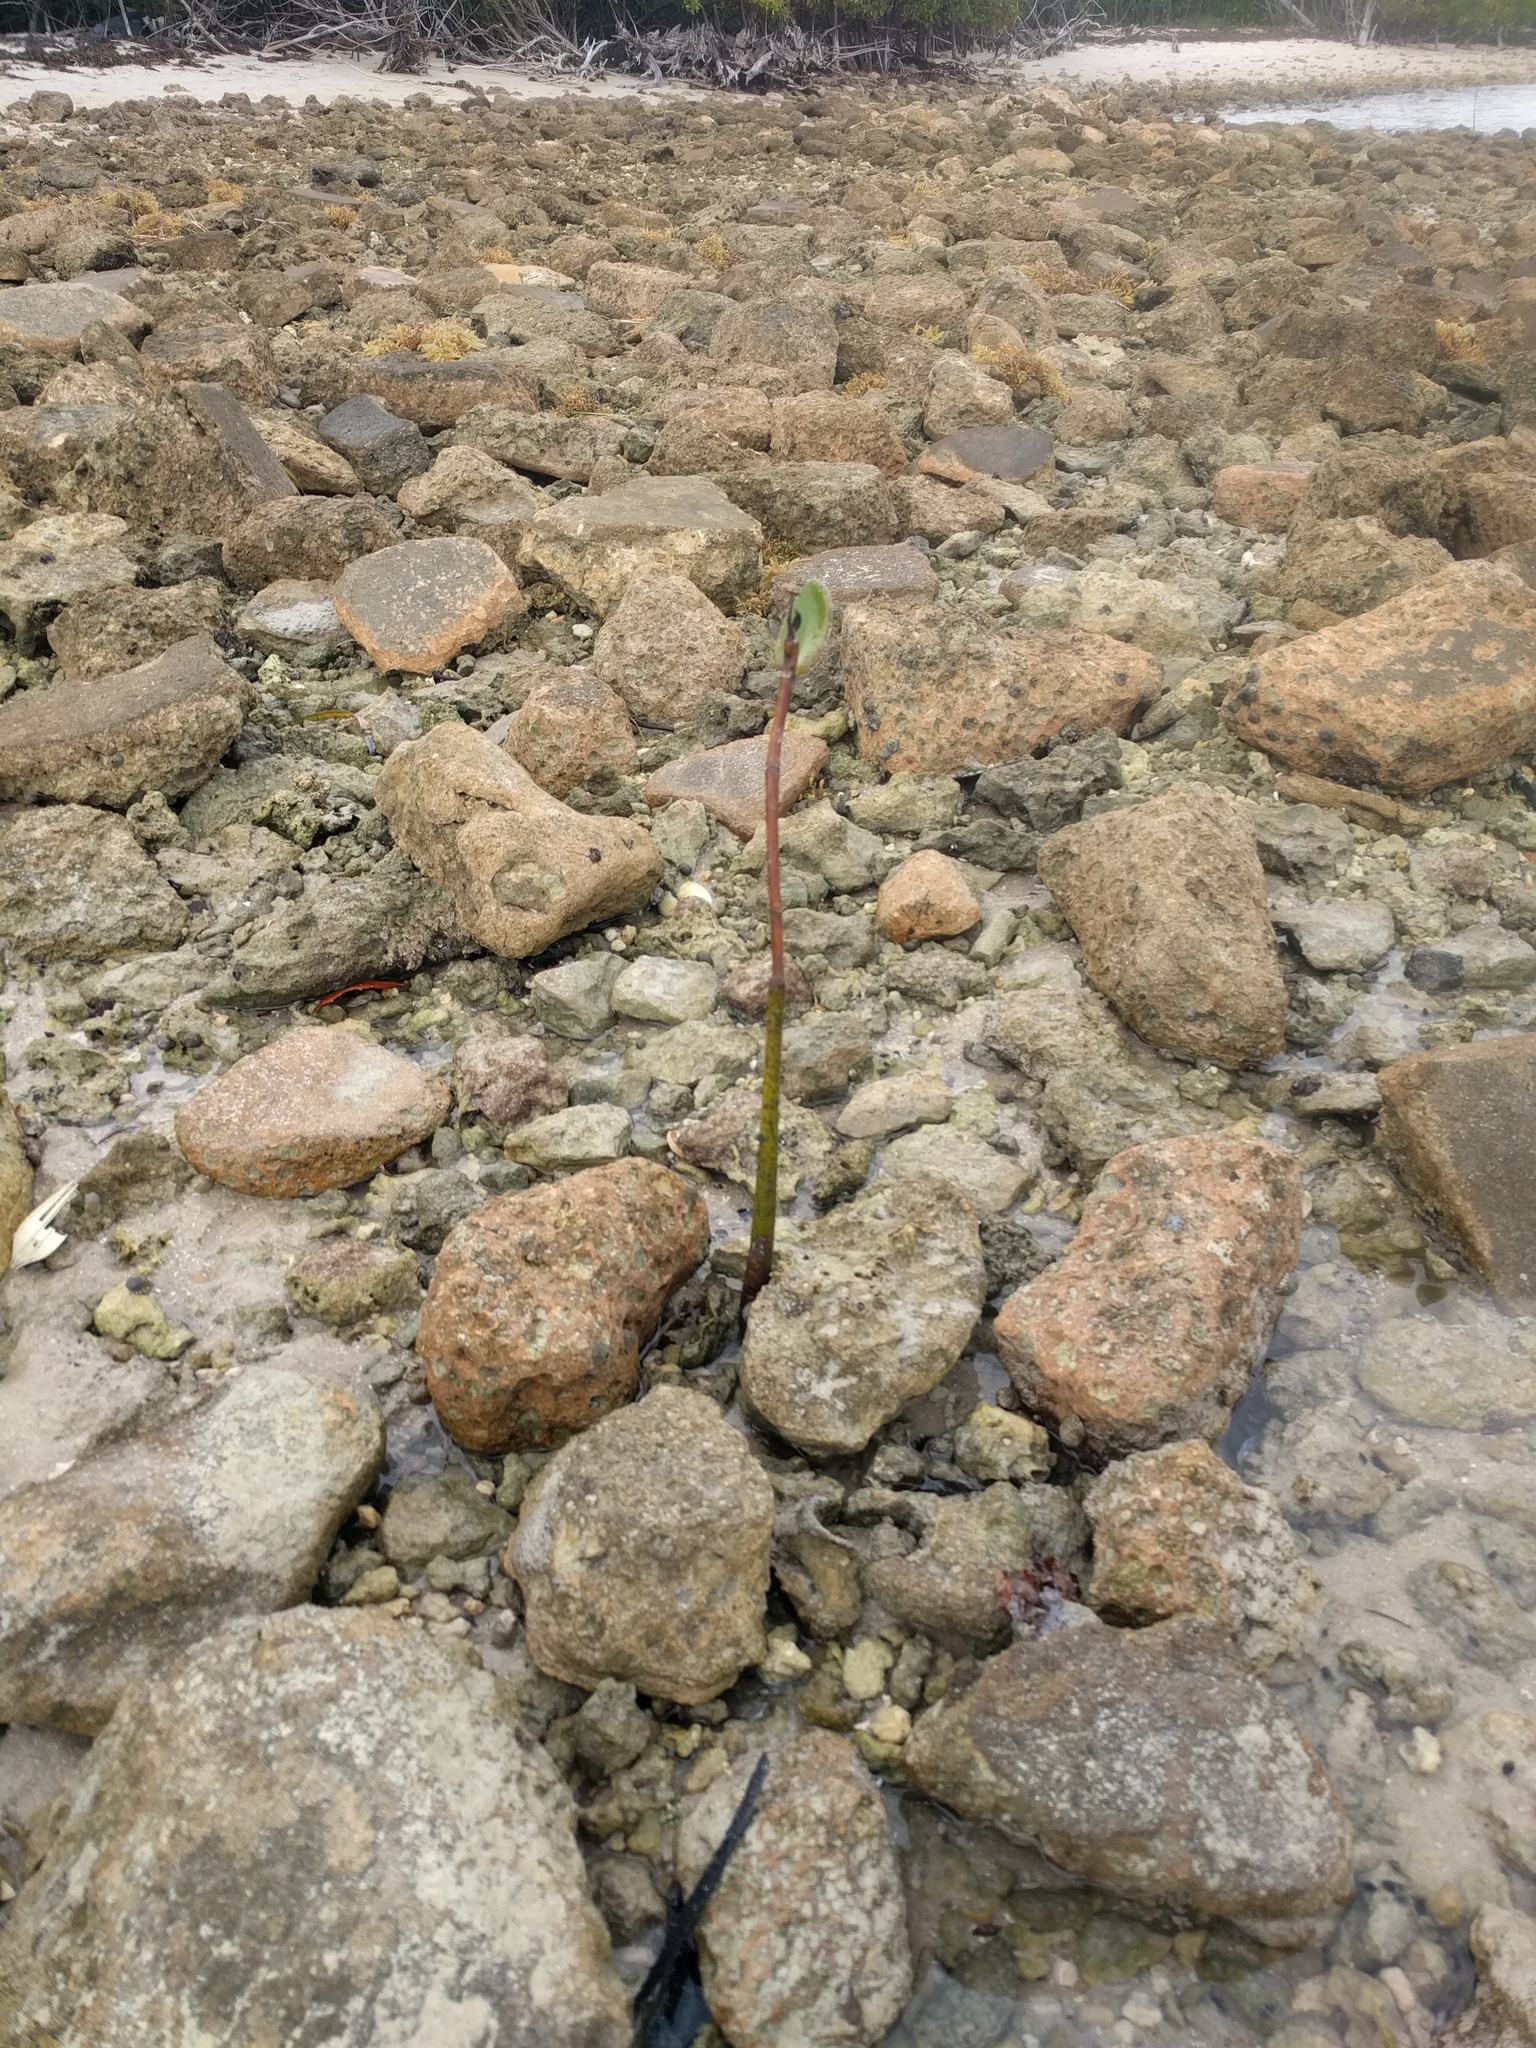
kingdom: Plantae
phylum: Tracheophyta
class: Magnoliopsida
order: Malpighiales
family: Rhizophoraceae
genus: Rhizophora
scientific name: Rhizophora mangle
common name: Red mangrove
